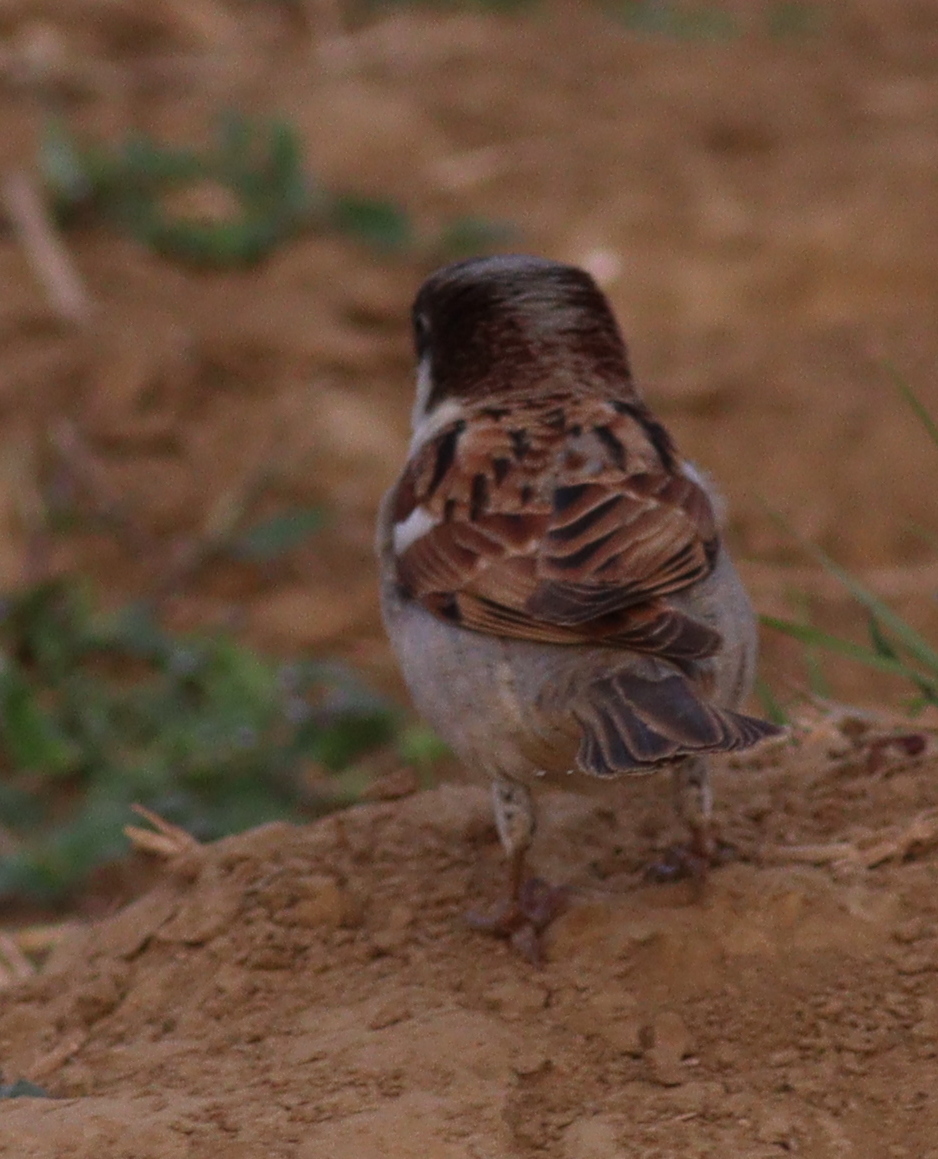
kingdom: Animalia
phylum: Chordata
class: Aves
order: Passeriformes
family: Passeridae
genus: Passer
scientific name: Passer domesticus
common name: House sparrow
